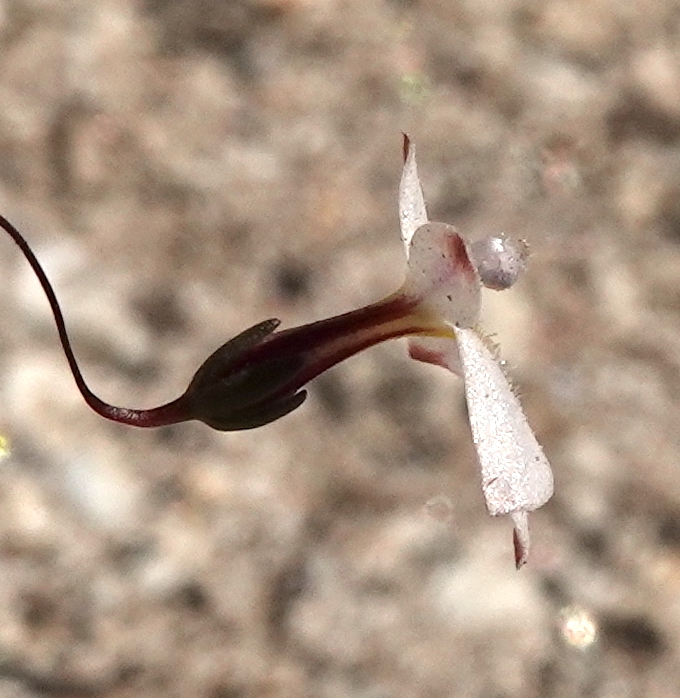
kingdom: Plantae
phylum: Tracheophyta
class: Magnoliopsida
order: Asterales
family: Campanulaceae
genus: Nemacladus
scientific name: Nemacladus longiflorus
